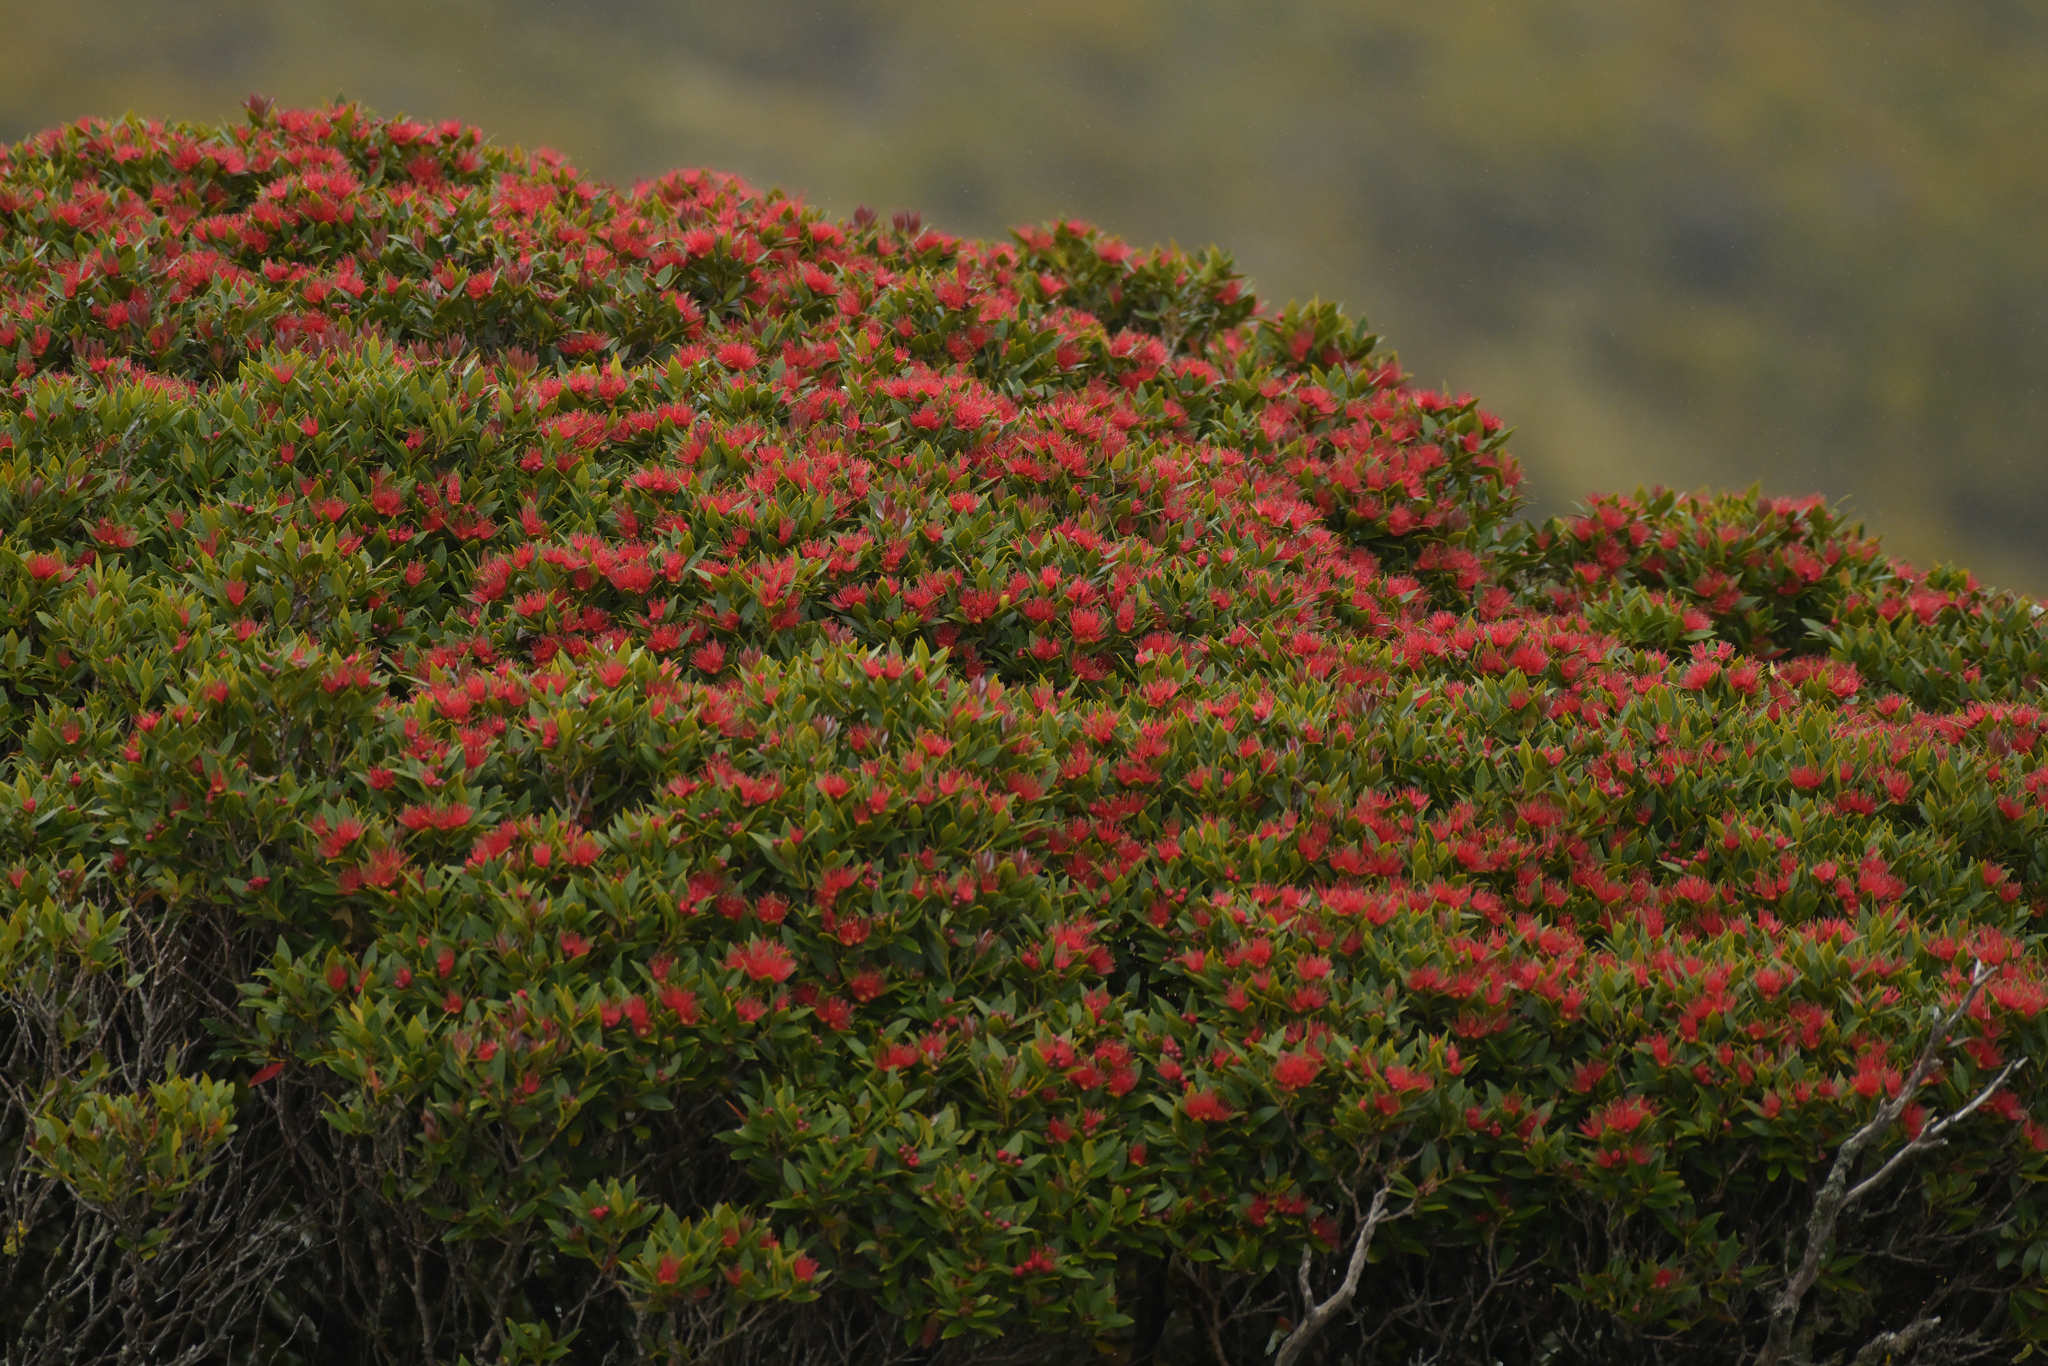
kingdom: Plantae
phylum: Tracheophyta
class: Magnoliopsida
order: Myrtales
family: Myrtaceae
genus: Metrosideros
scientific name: Metrosideros umbellata
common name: Southern rata
